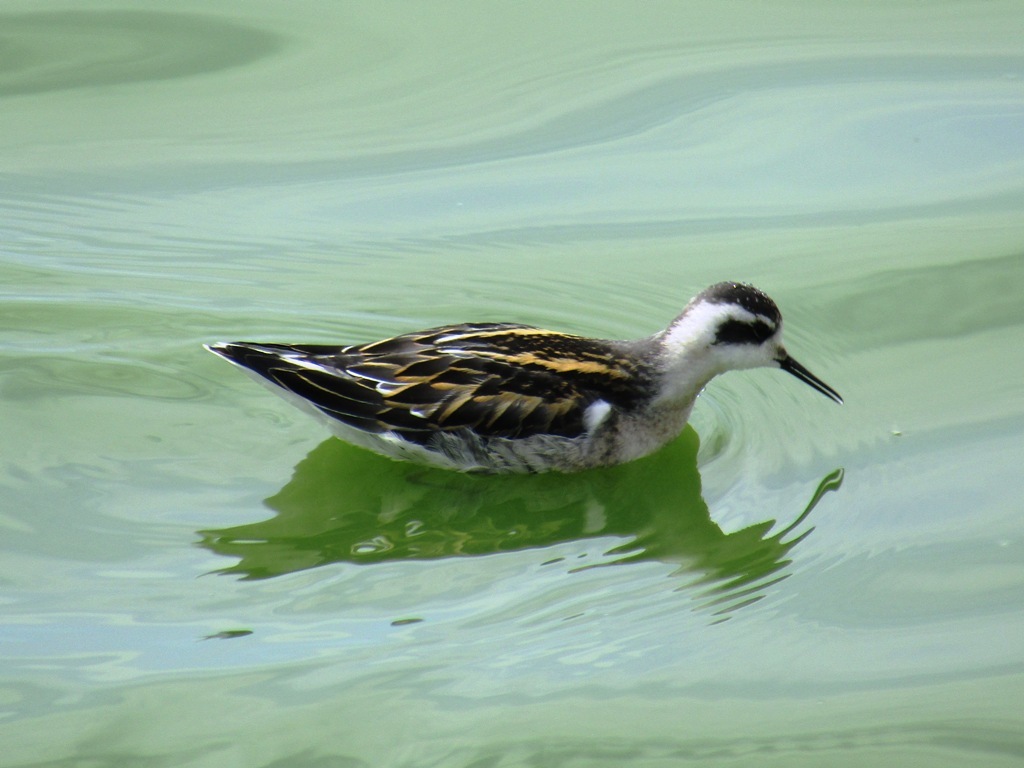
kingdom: Animalia
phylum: Chordata
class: Aves
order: Charadriiformes
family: Scolopacidae
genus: Phalaropus
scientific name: Phalaropus lobatus
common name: Red-necked phalarope
